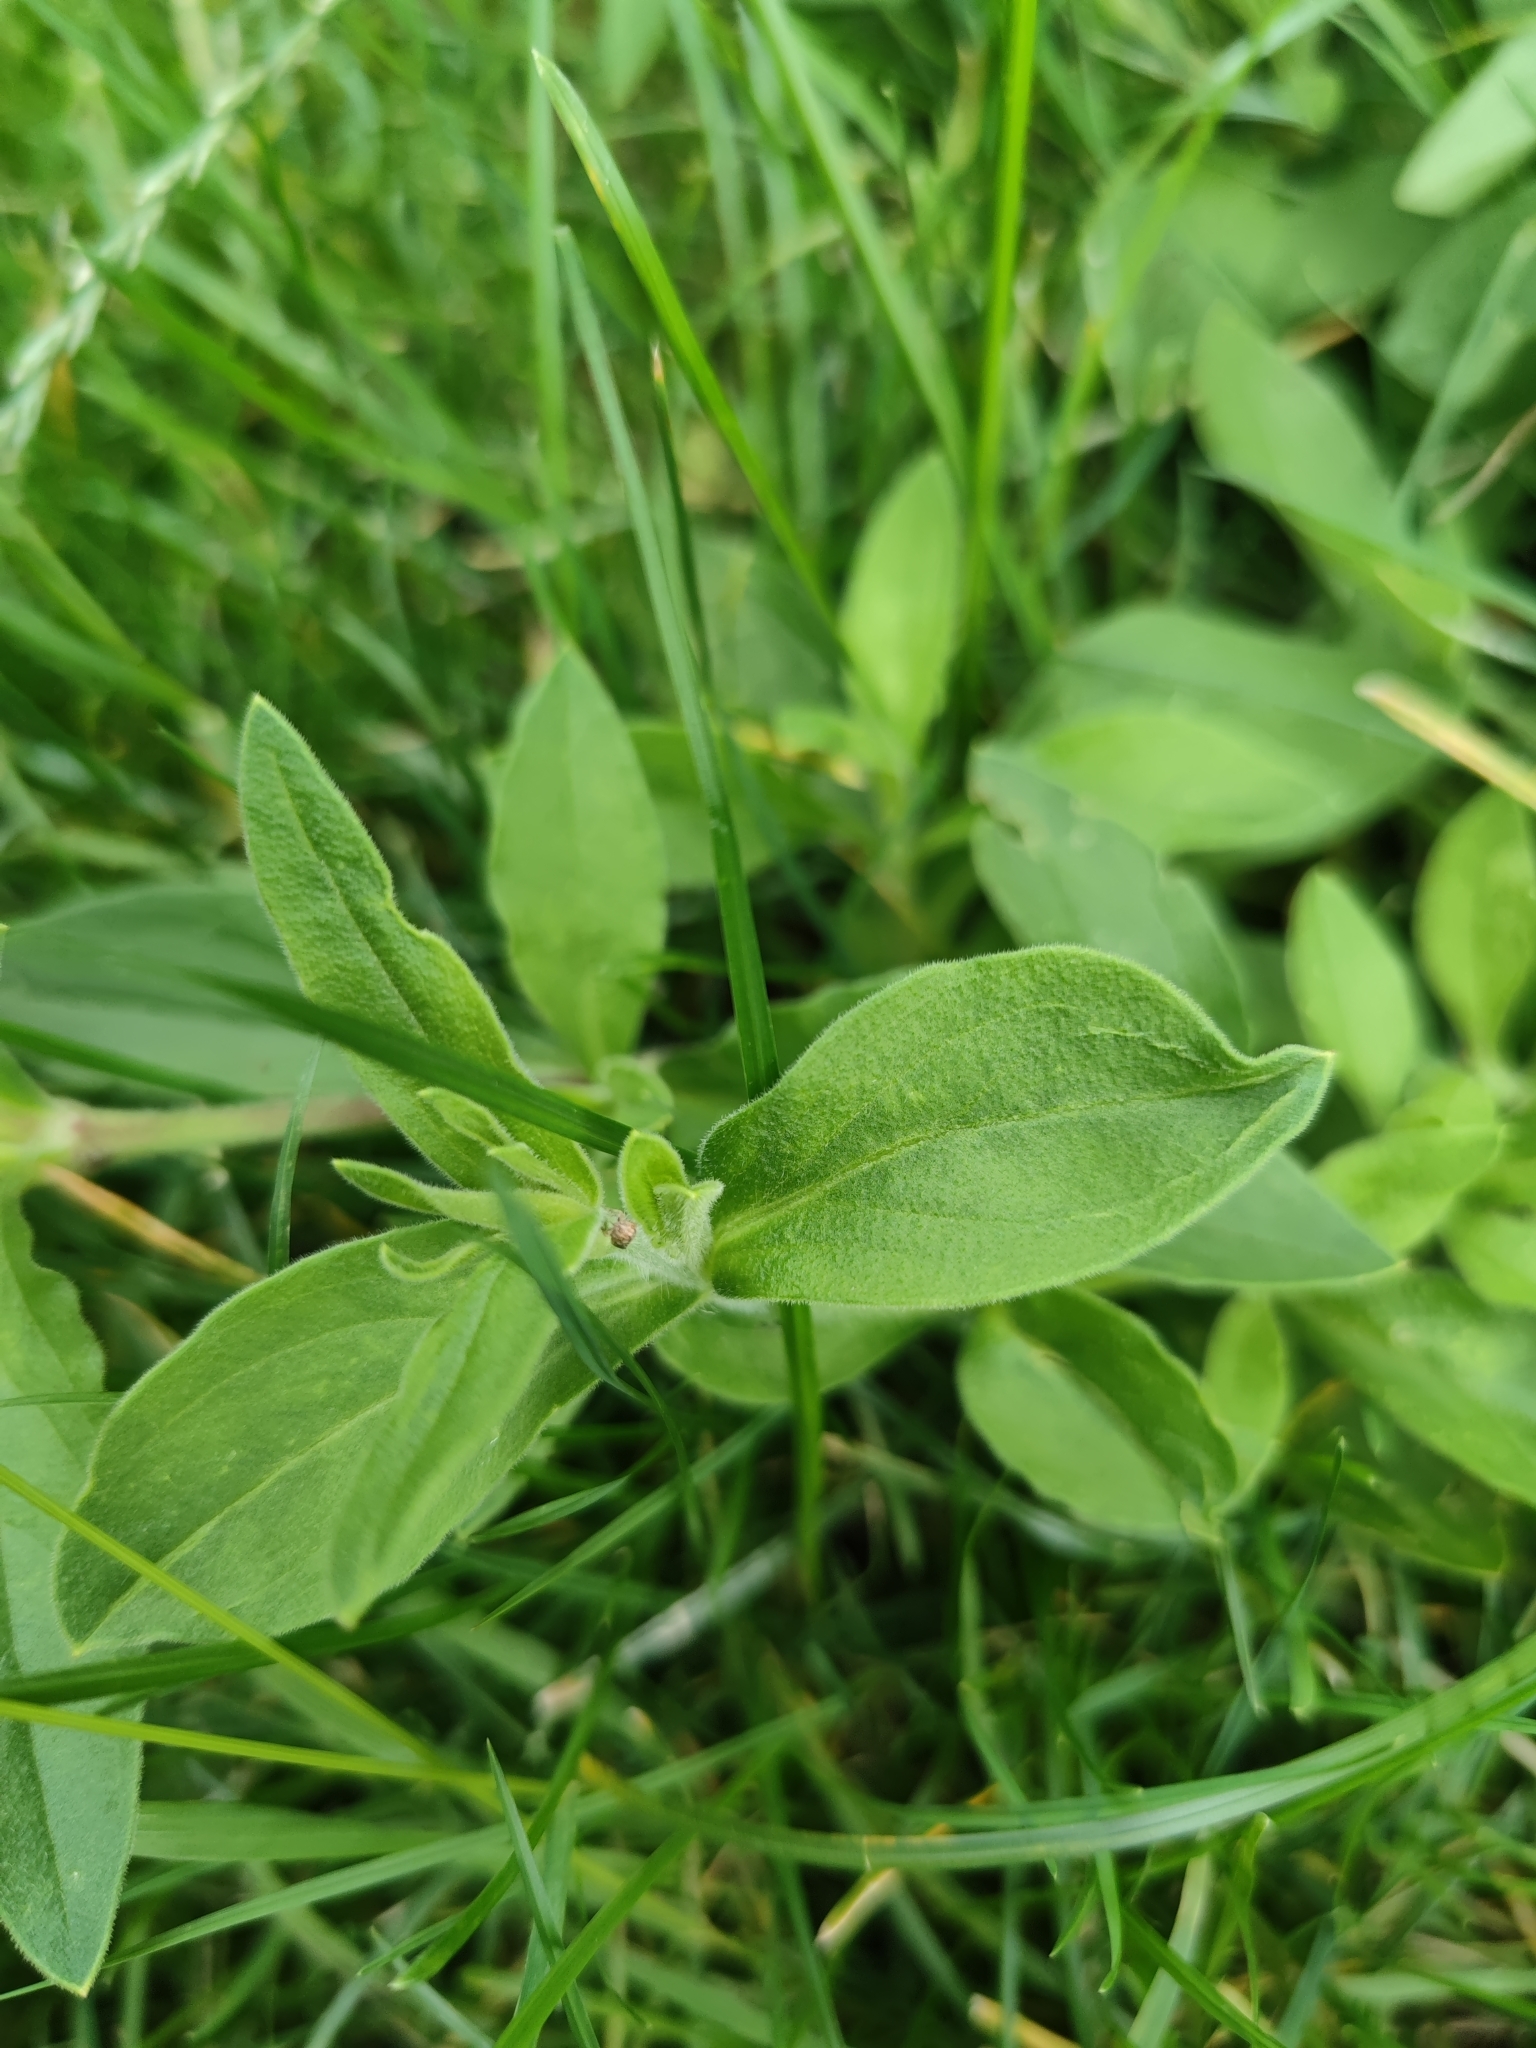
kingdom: Plantae
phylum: Tracheophyta
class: Magnoliopsida
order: Caryophyllales
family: Caryophyllaceae
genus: Silene
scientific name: Silene latifolia
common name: White campion
